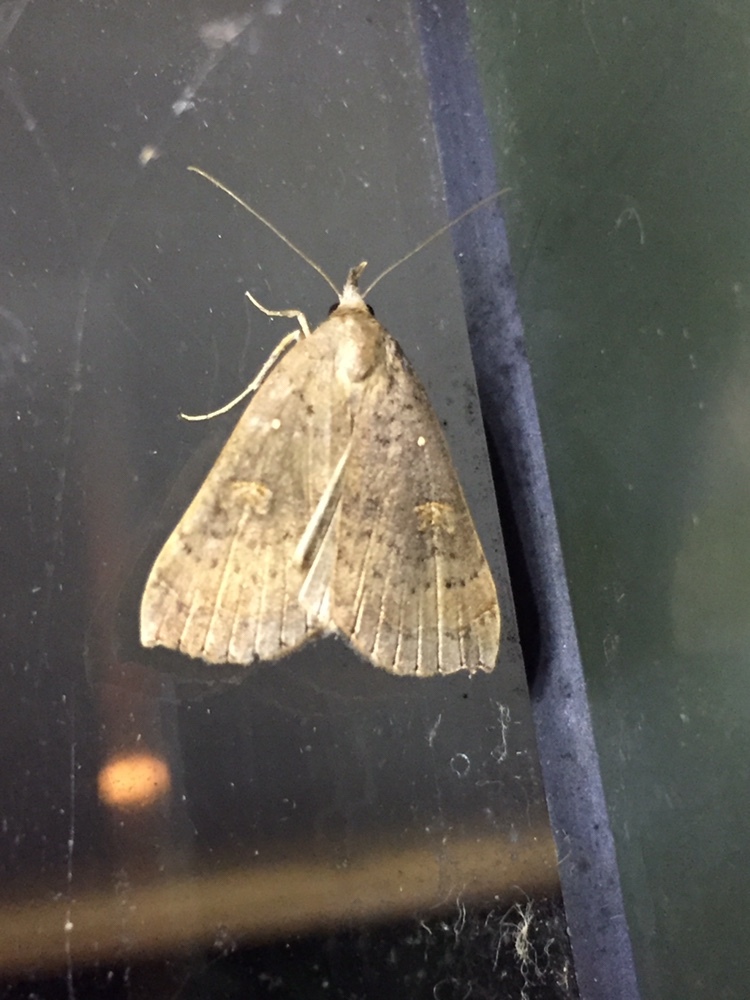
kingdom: Animalia
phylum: Arthropoda
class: Insecta
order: Lepidoptera
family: Erebidae
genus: Rhapsa
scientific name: Rhapsa scotosialis
